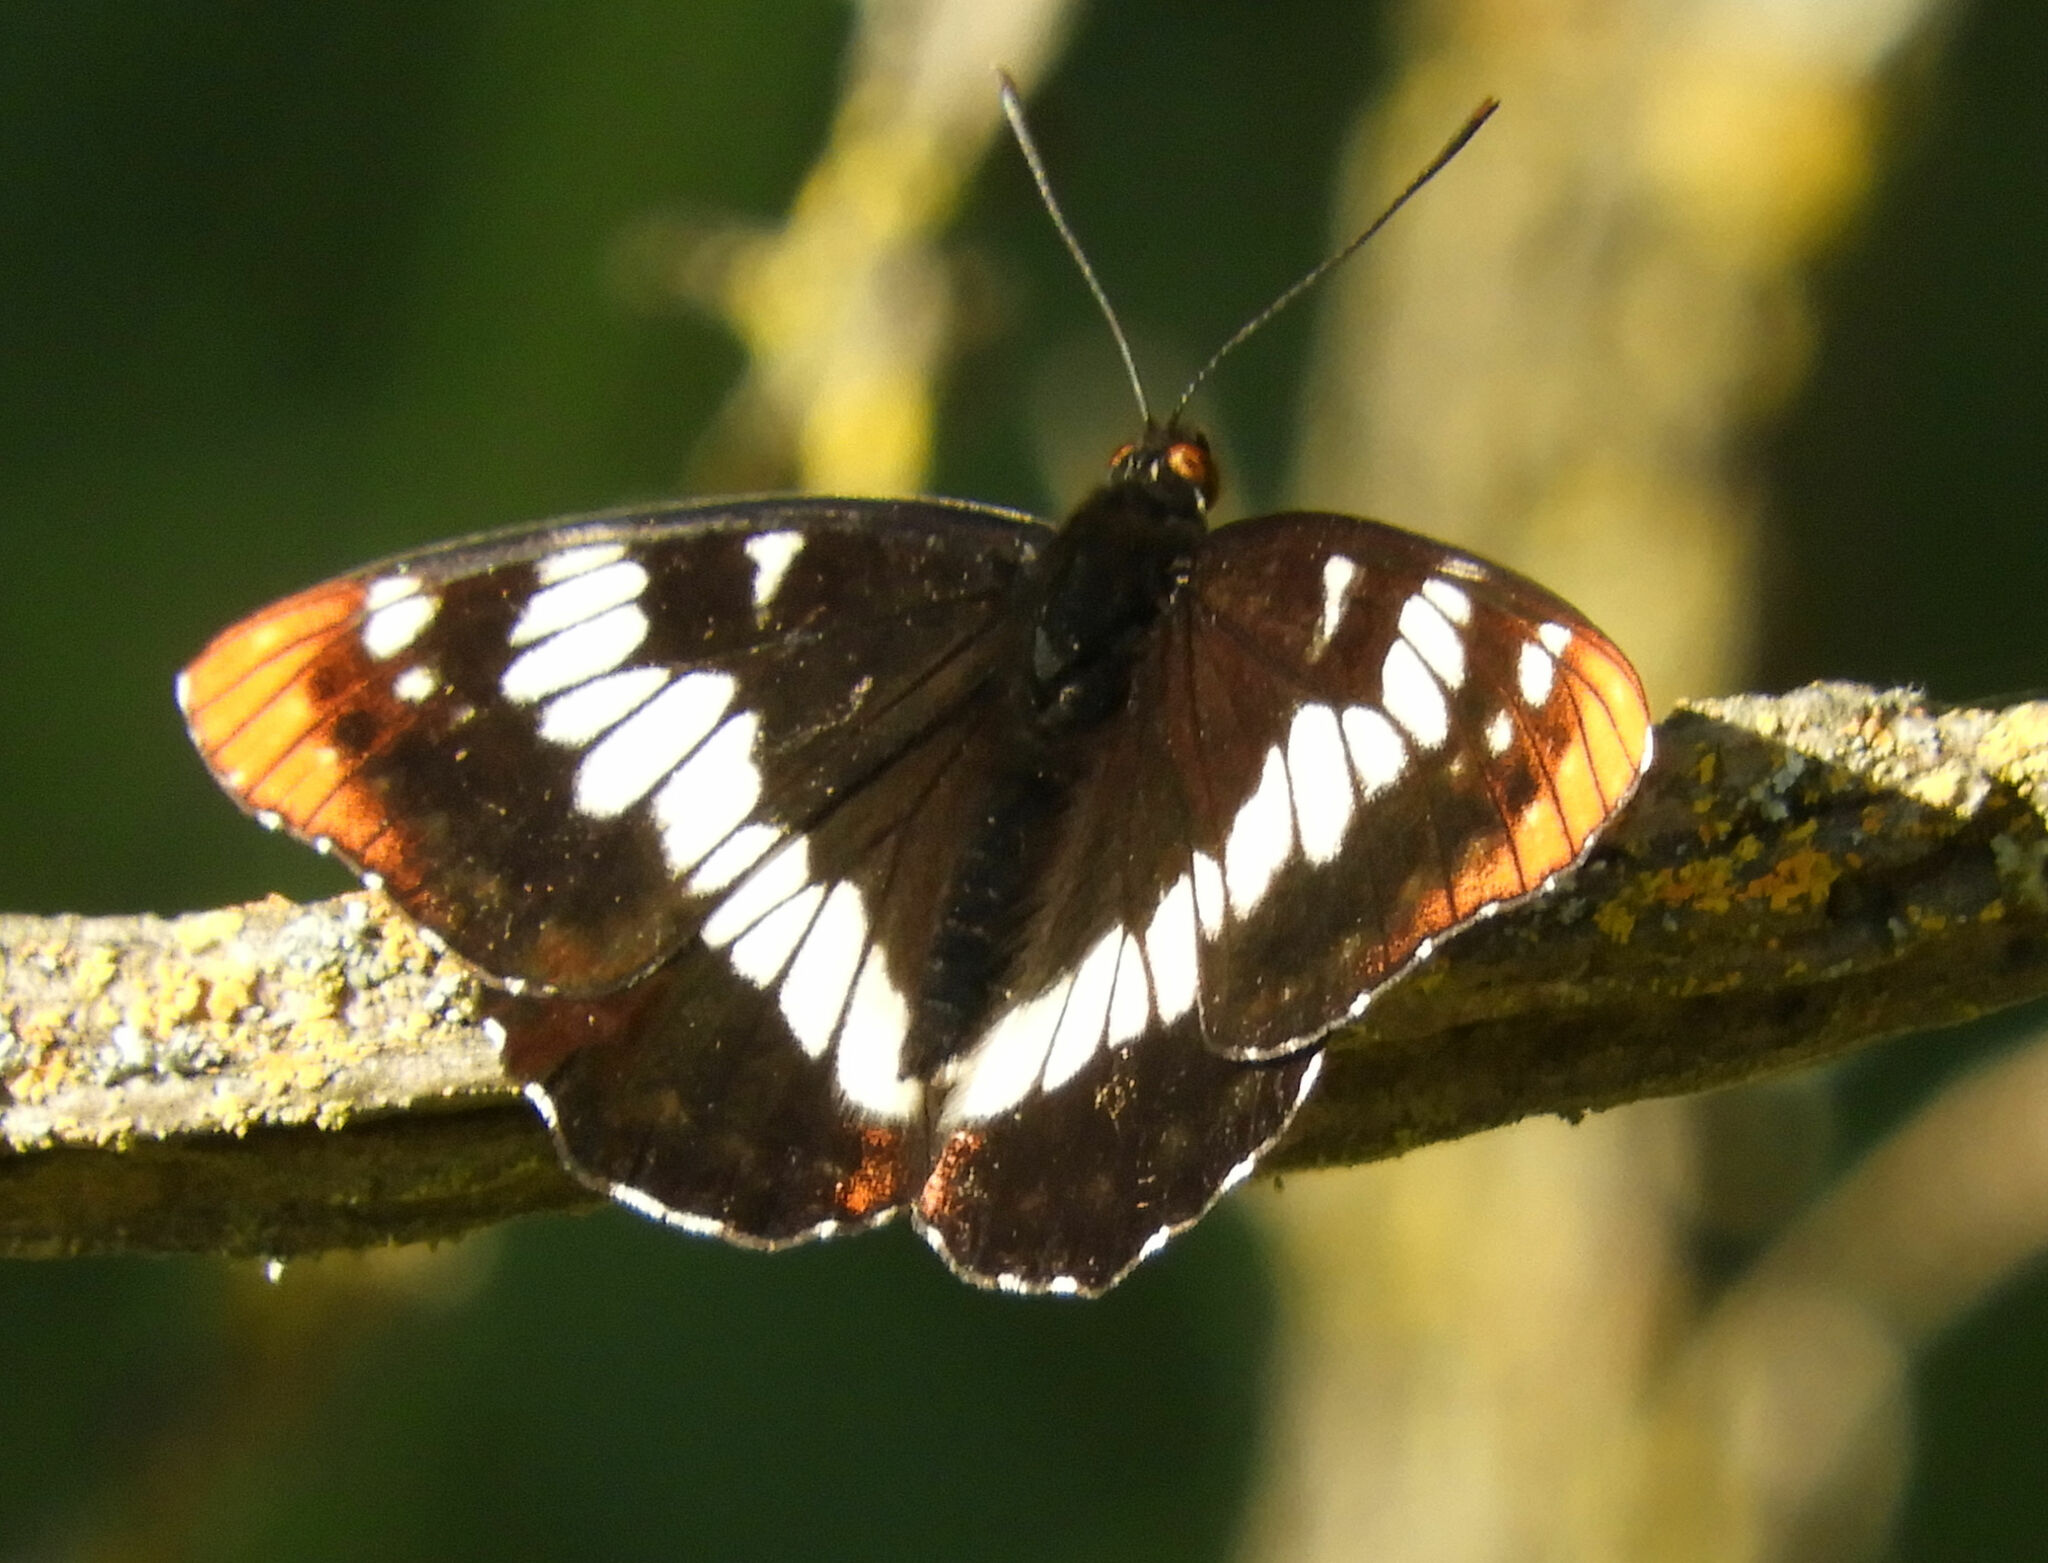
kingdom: Animalia
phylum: Arthropoda
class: Insecta
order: Lepidoptera
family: Nymphalidae
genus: Limenitis
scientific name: Limenitis lorquini
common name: Lorquin's admiral
